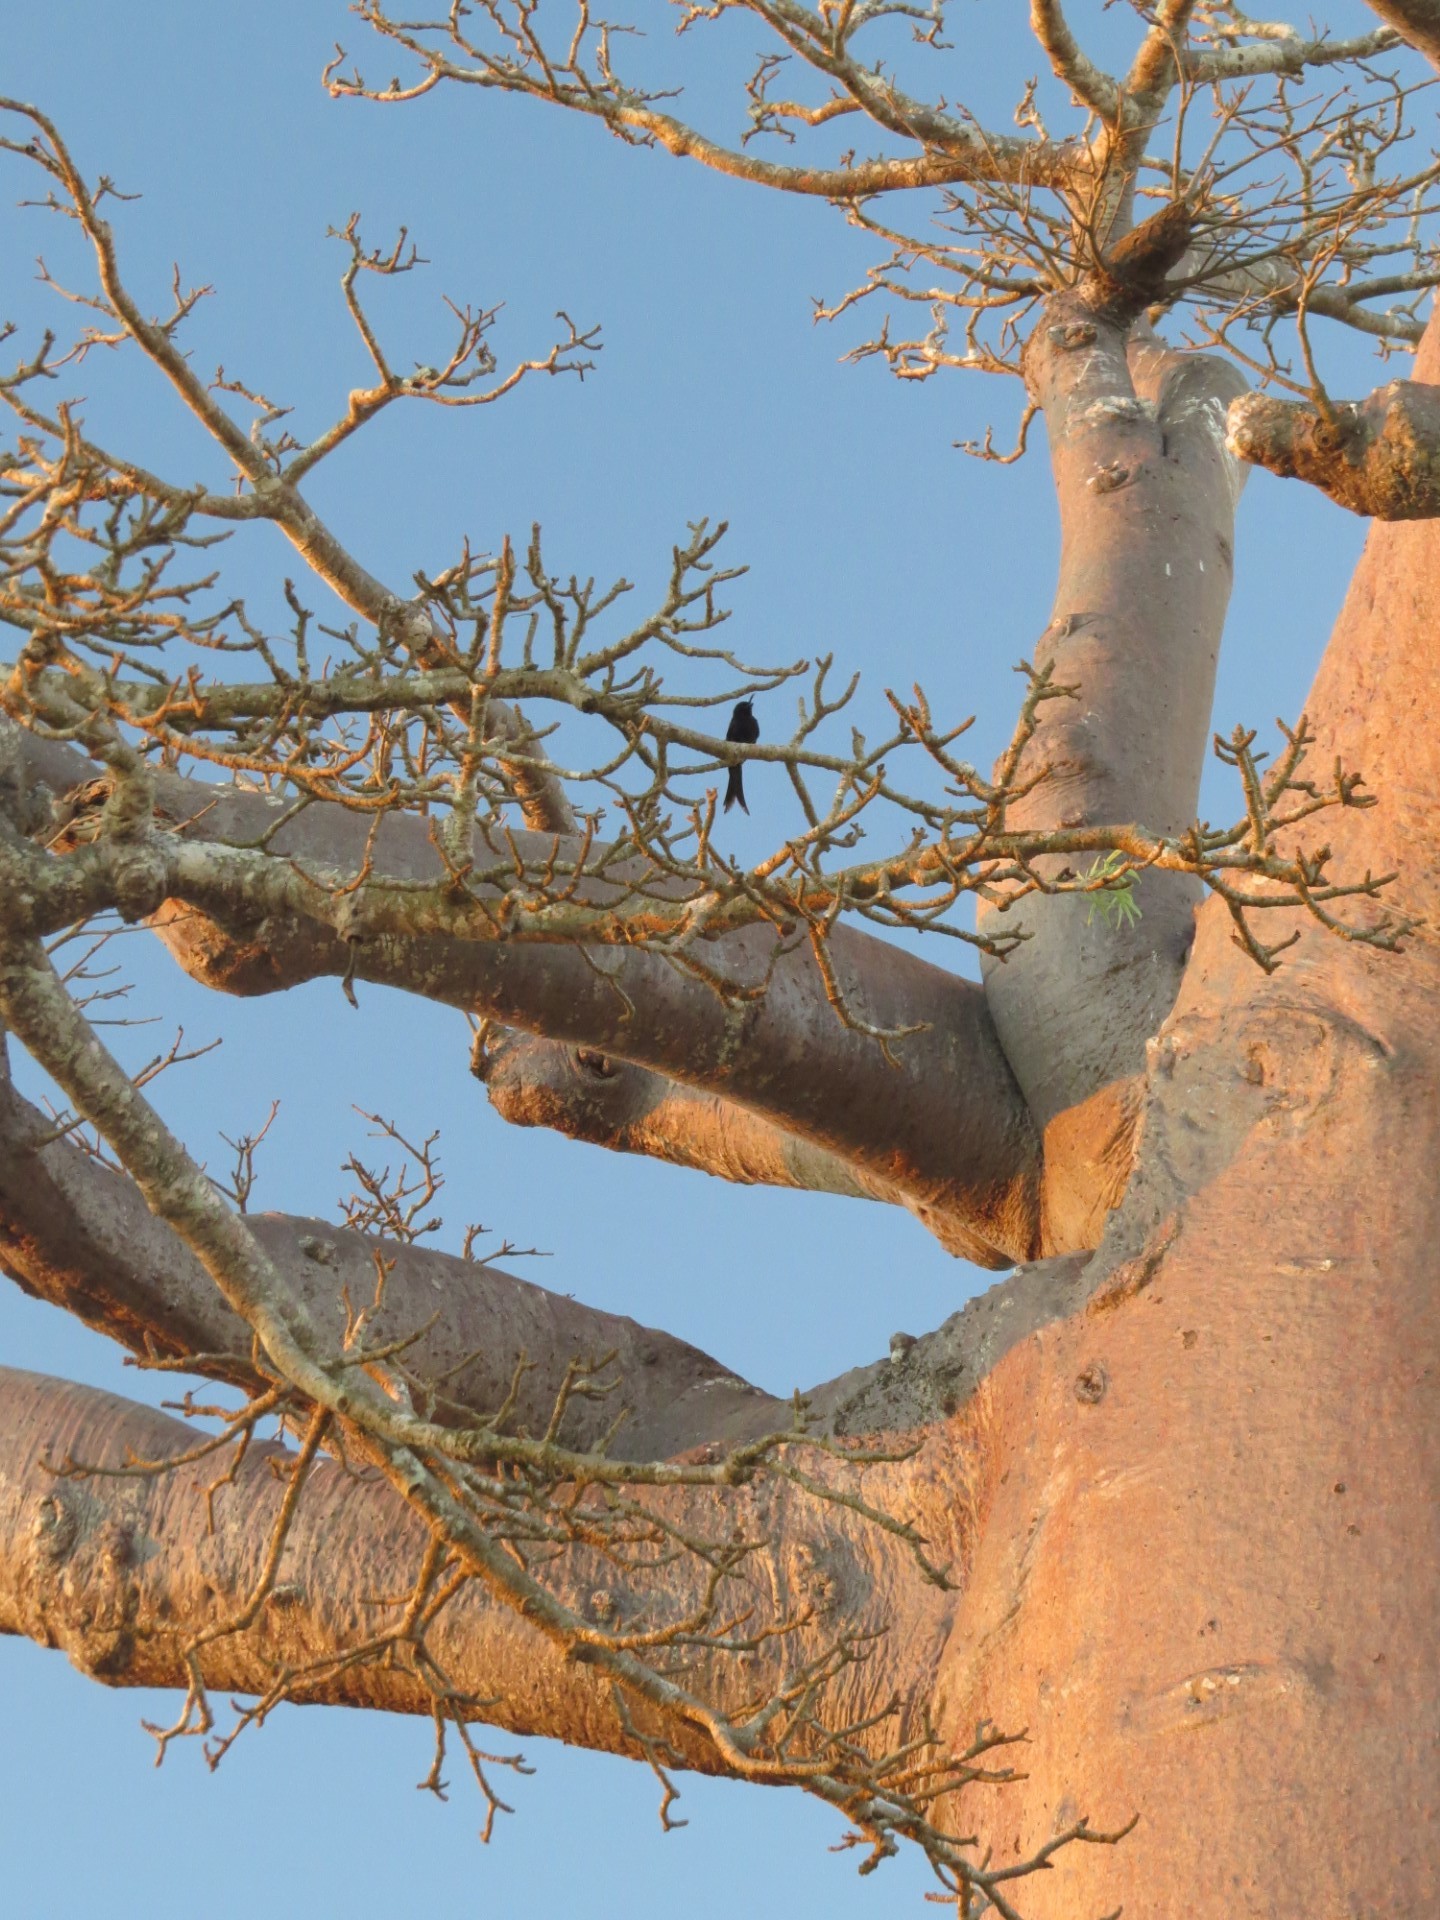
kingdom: Animalia
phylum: Chordata
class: Aves
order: Passeriformes
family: Dicruridae
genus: Dicrurus
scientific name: Dicrurus forficatus
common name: Crested drongo
